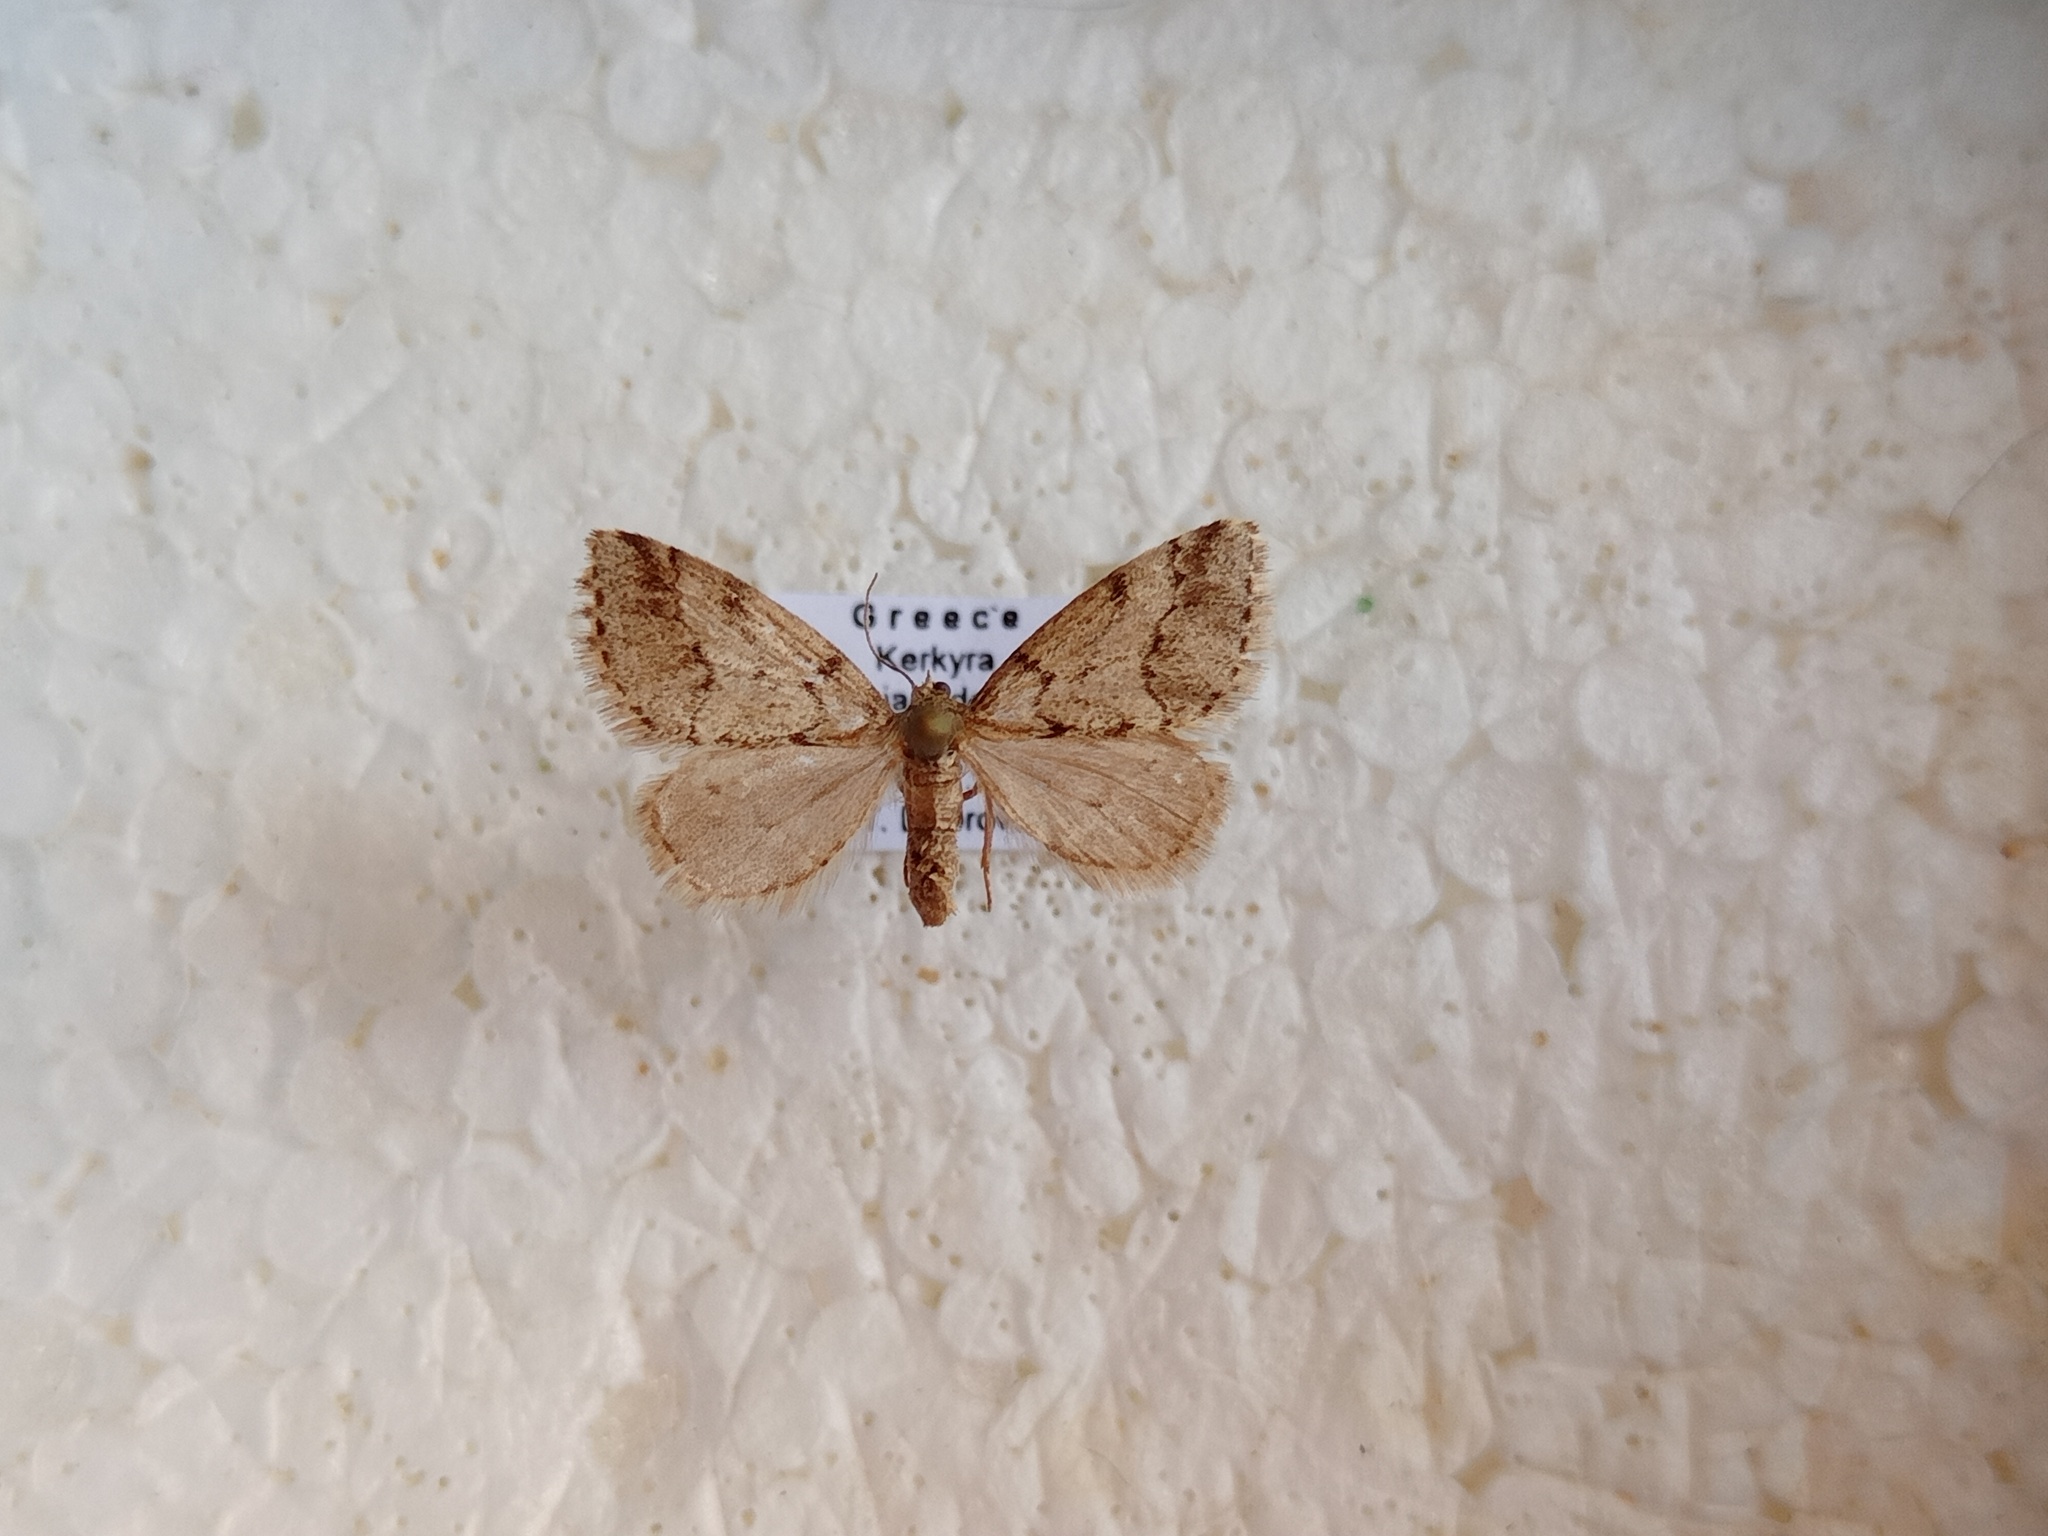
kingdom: Animalia
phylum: Arthropoda
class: Insecta
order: Lepidoptera
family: Geometridae
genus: Eumannia
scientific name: Eumannia oppositaria
